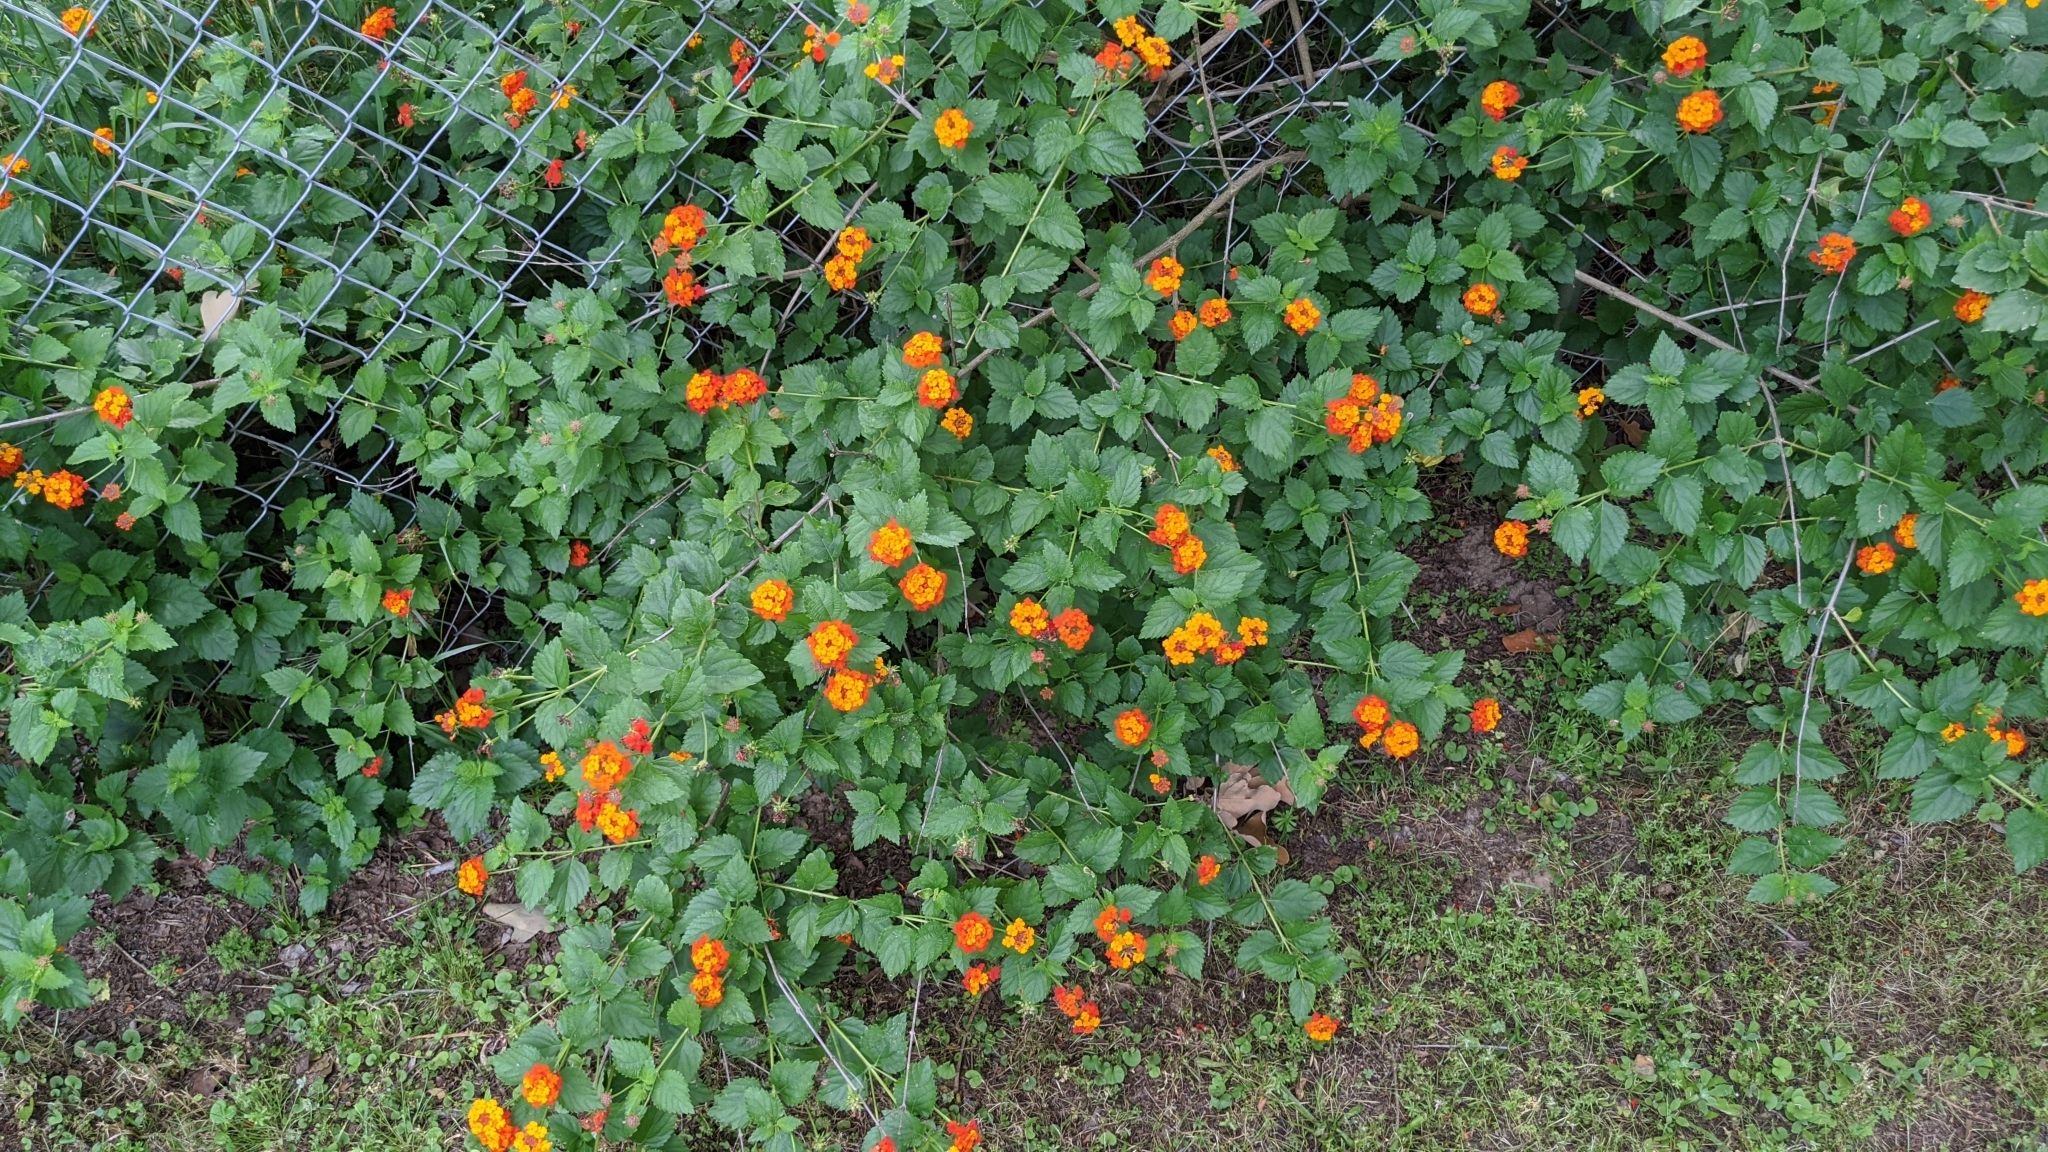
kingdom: Plantae
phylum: Tracheophyta
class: Magnoliopsida
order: Lamiales
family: Verbenaceae
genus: Lantana
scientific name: Lantana camara
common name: Lantana
